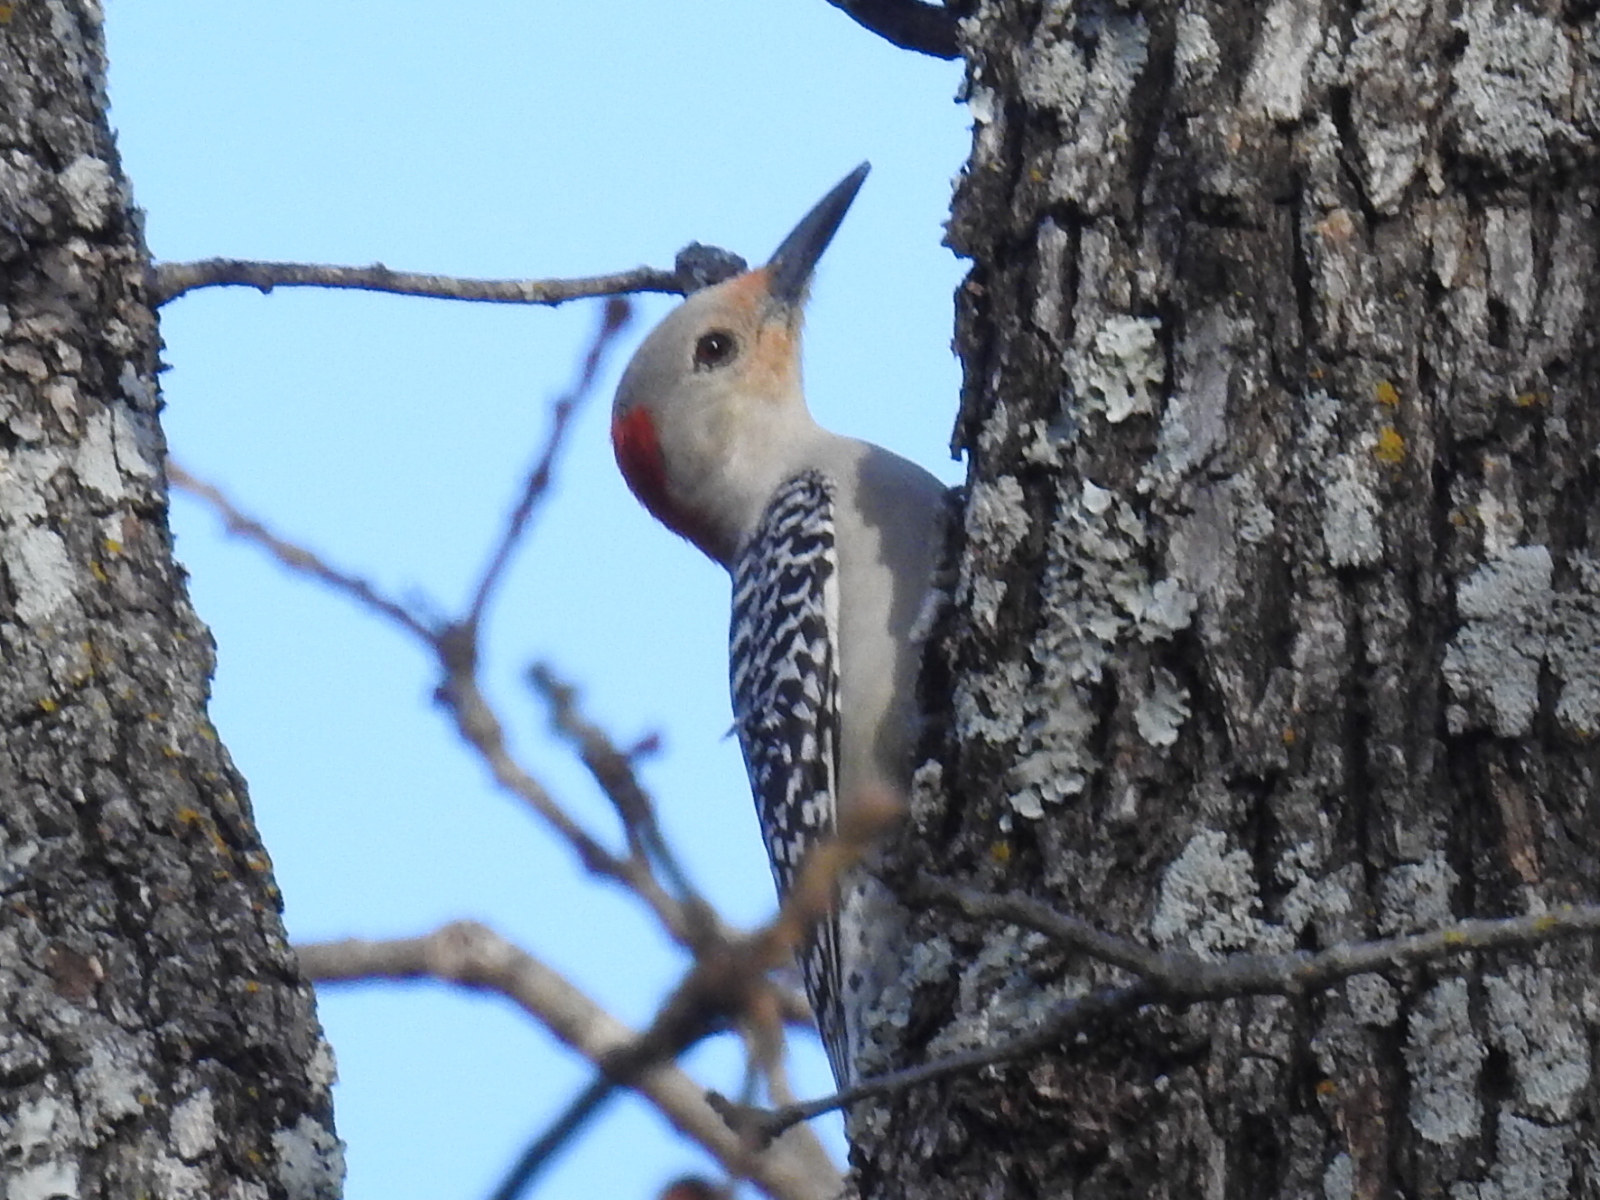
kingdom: Animalia
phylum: Chordata
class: Aves
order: Piciformes
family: Picidae
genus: Melanerpes
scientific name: Melanerpes carolinus
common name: Red-bellied woodpecker
